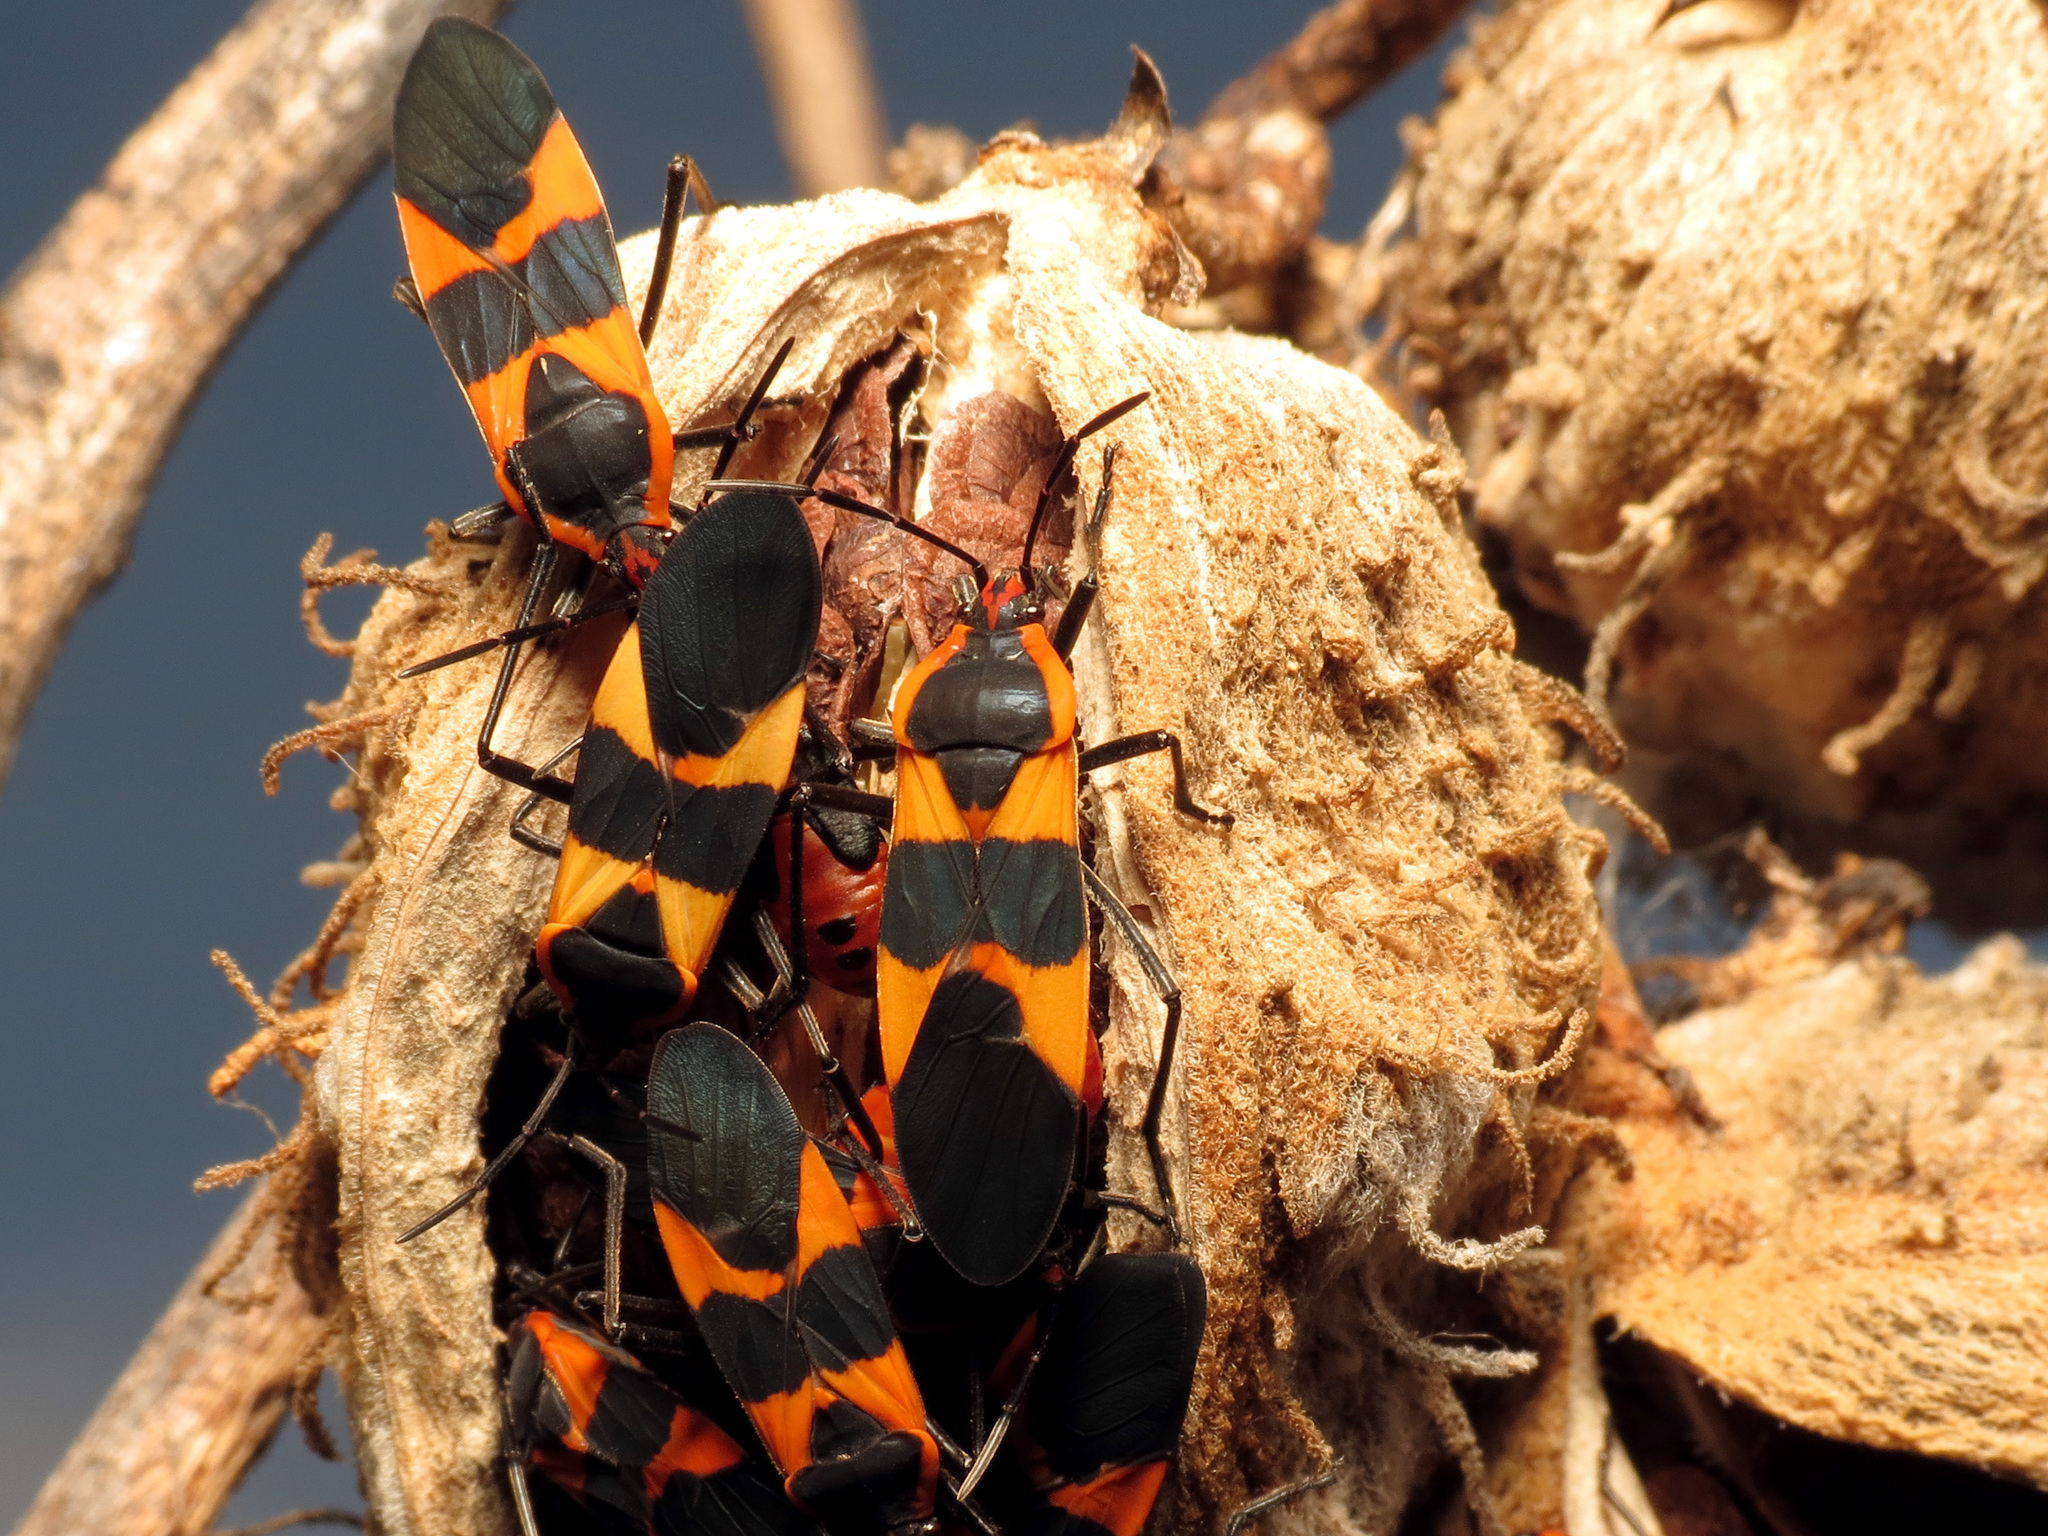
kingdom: Animalia
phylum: Arthropoda
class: Insecta
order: Hemiptera
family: Lygaeidae
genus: Oncopeltus
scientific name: Oncopeltus fasciatus
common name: Large milkweed bug
